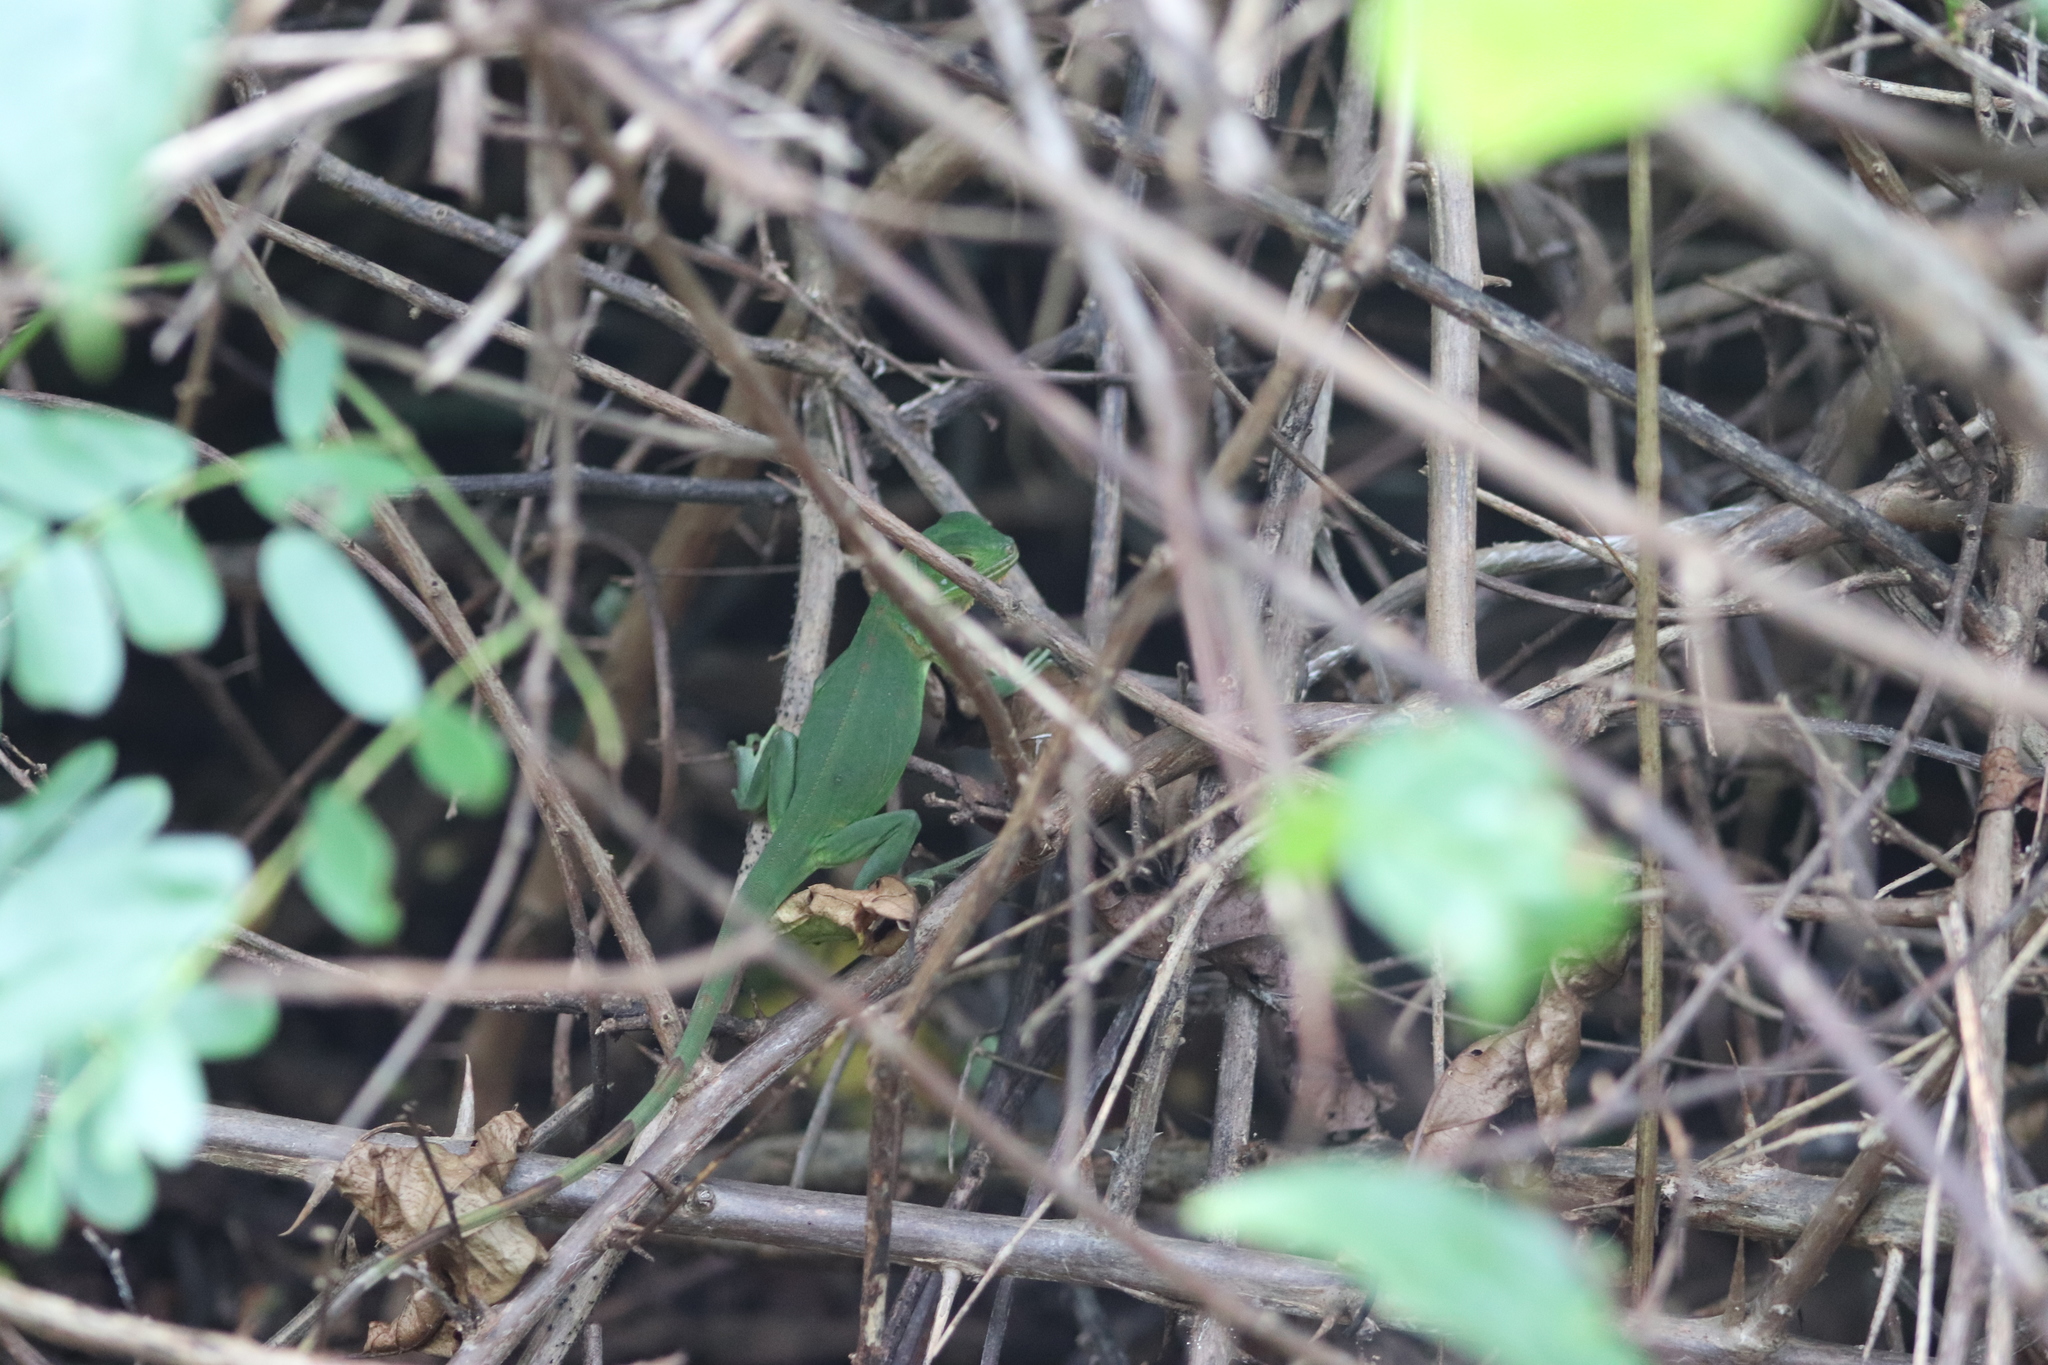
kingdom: Animalia
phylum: Chordata
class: Squamata
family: Iguanidae
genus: Iguana
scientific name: Iguana iguana
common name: Green iguana
